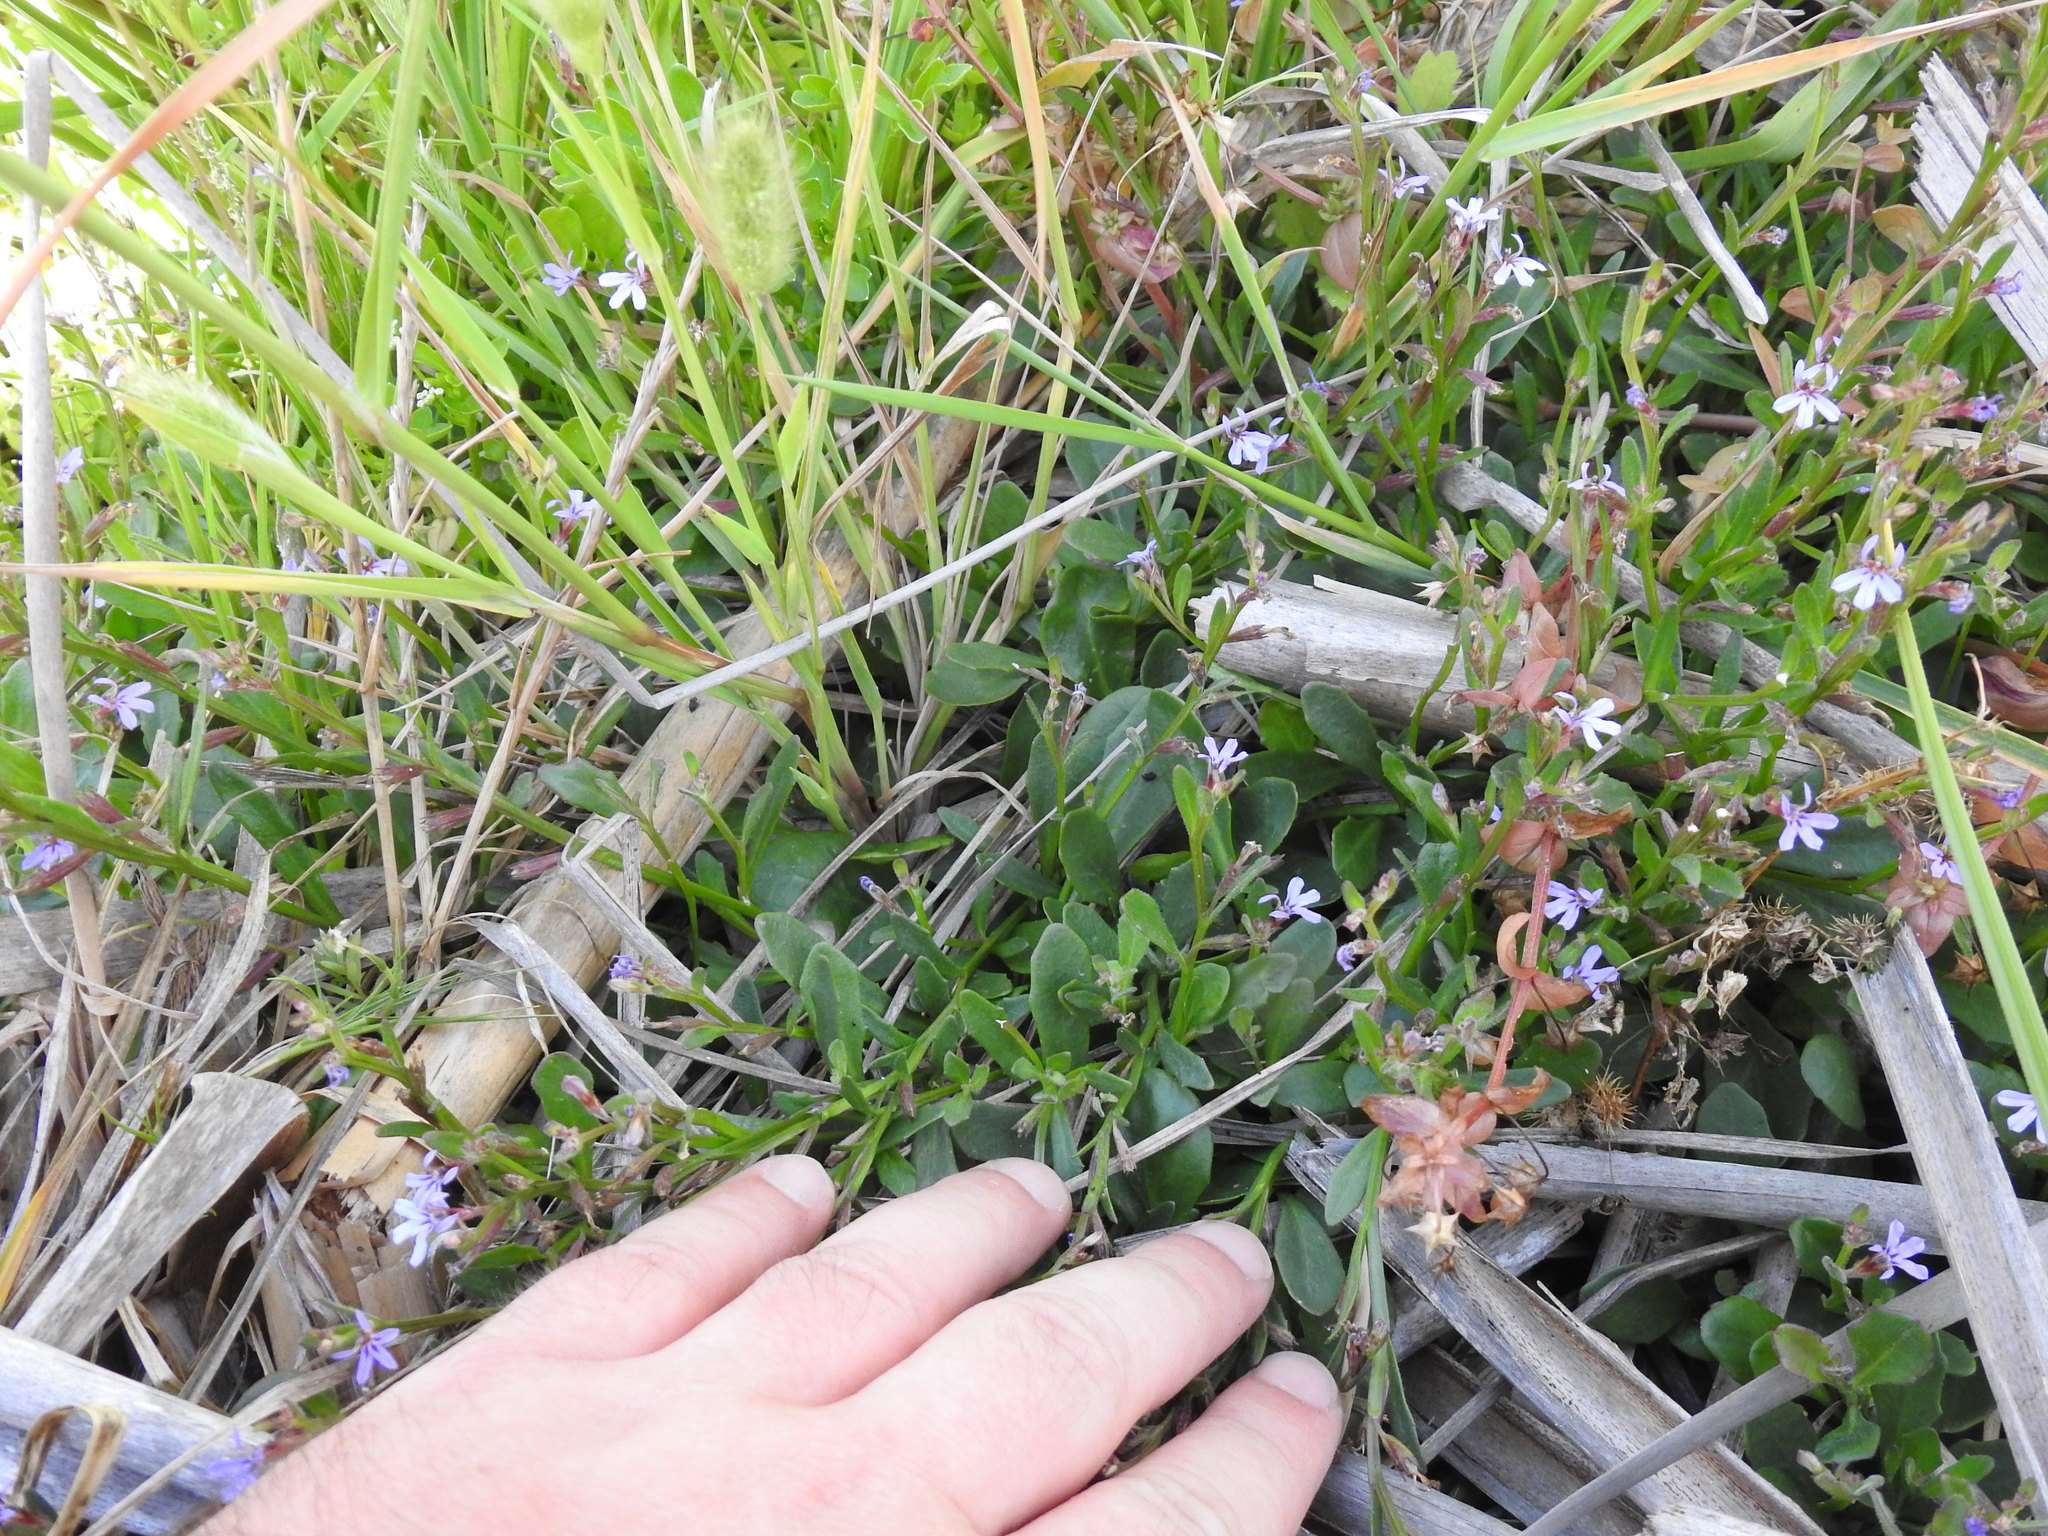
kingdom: Plantae
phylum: Tracheophyta
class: Magnoliopsida
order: Asterales
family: Campanulaceae
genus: Lobelia
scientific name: Lobelia anceps
